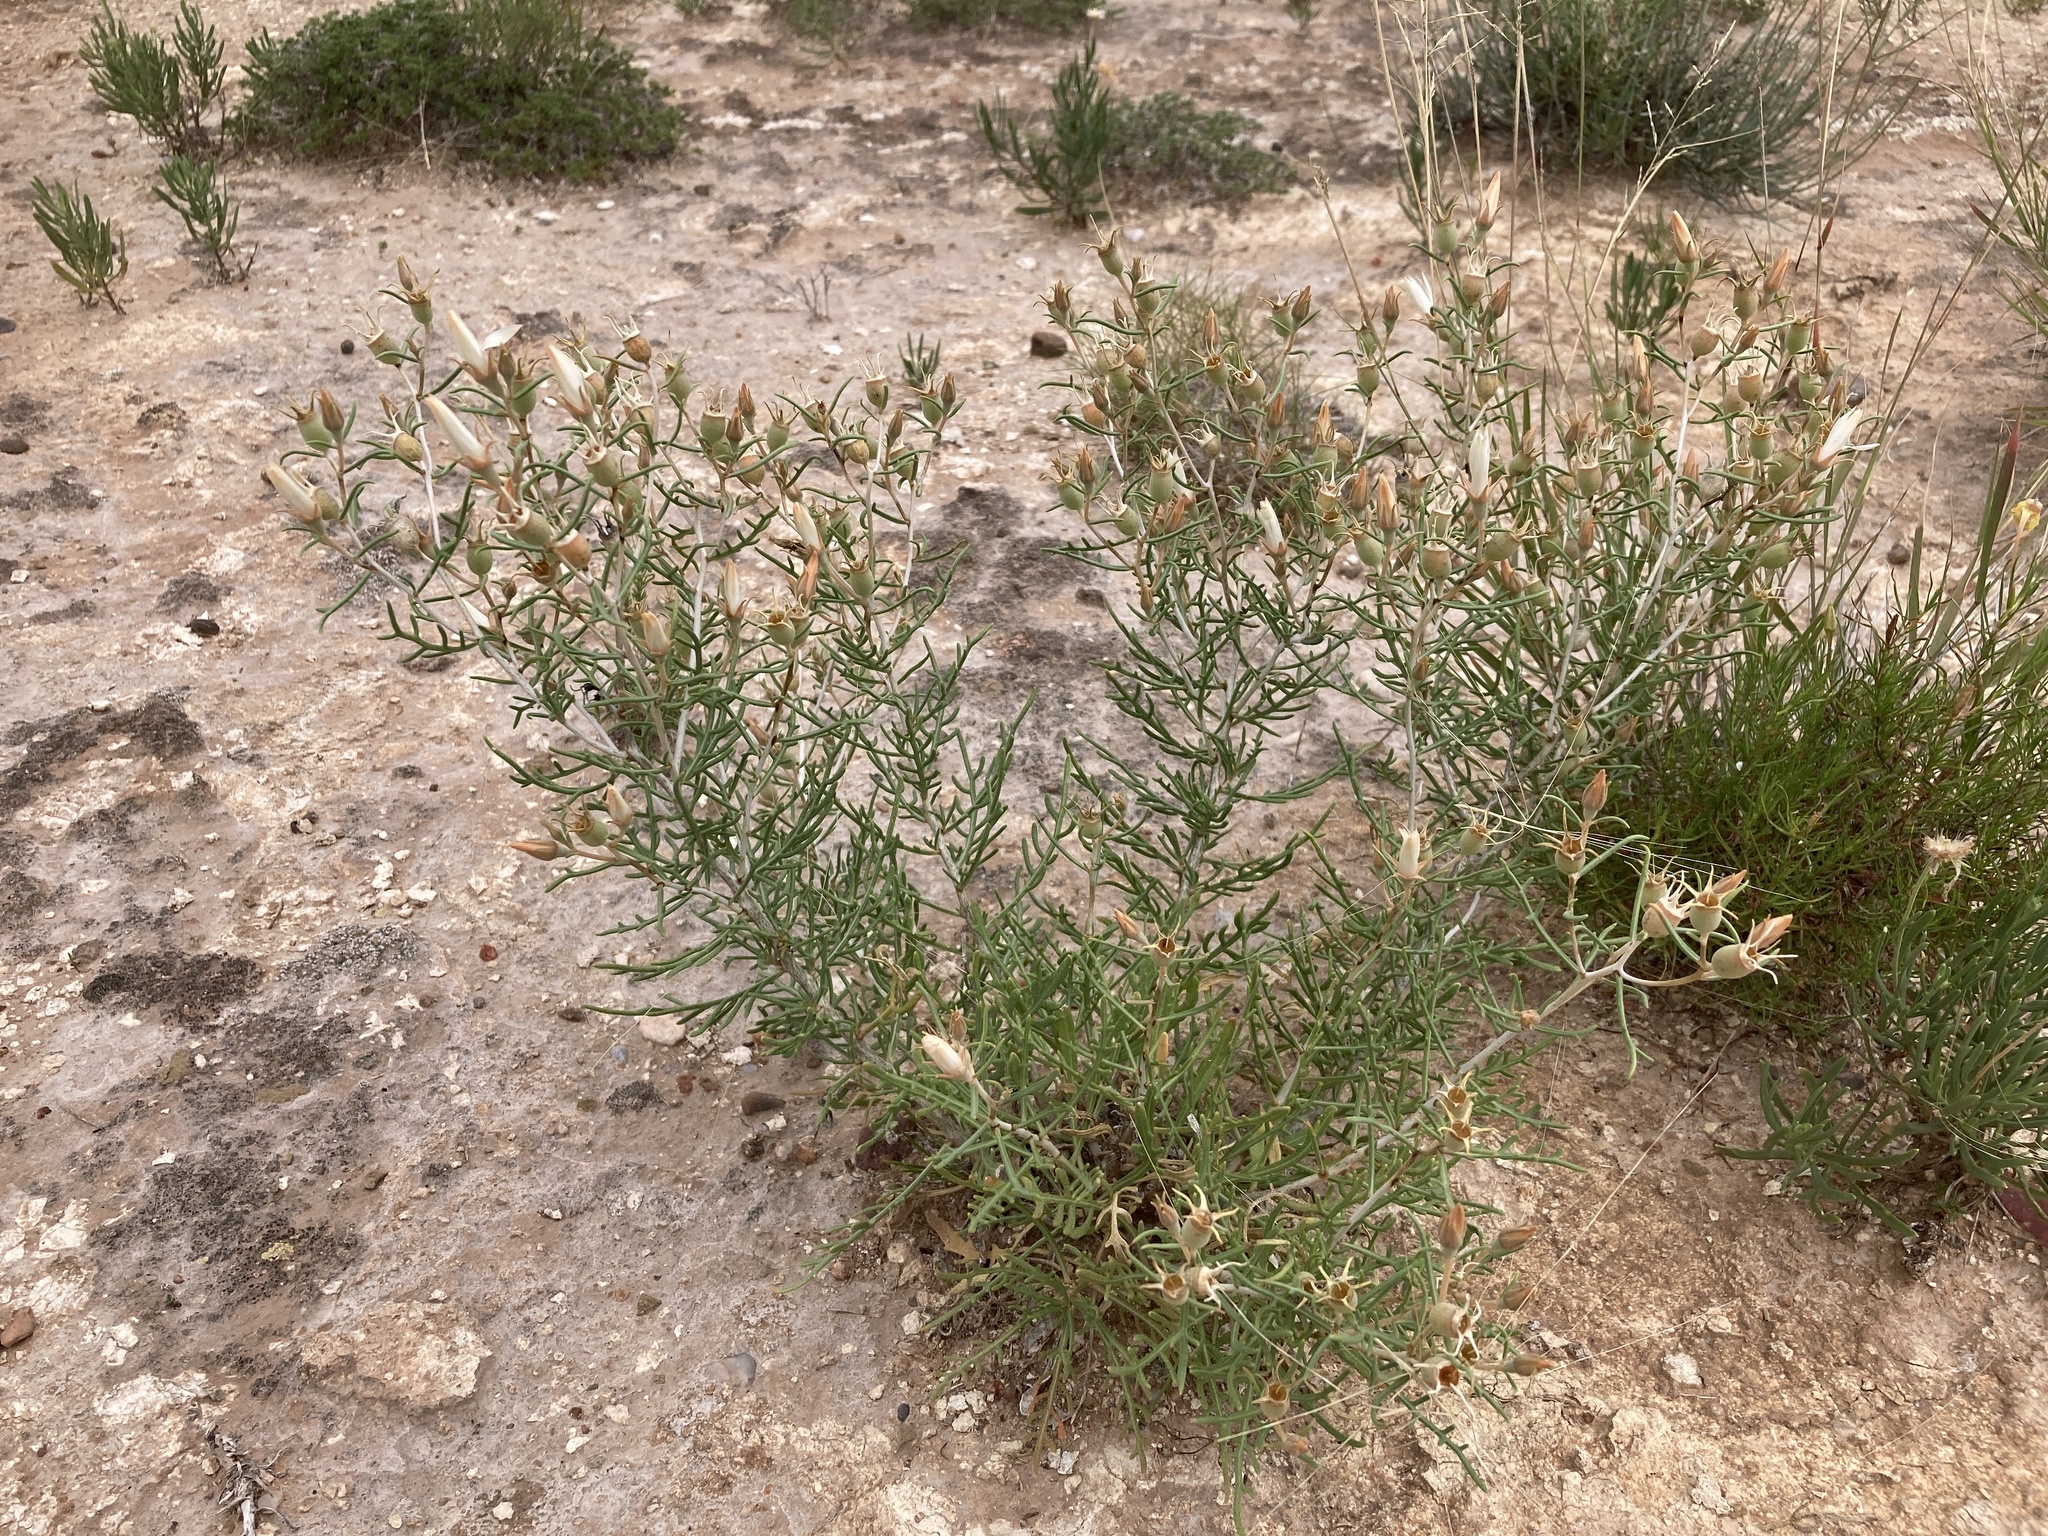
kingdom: Plantae
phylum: Tracheophyta
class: Magnoliopsida
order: Cornales
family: Loasaceae
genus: Mentzelia
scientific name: Mentzelia humilis
